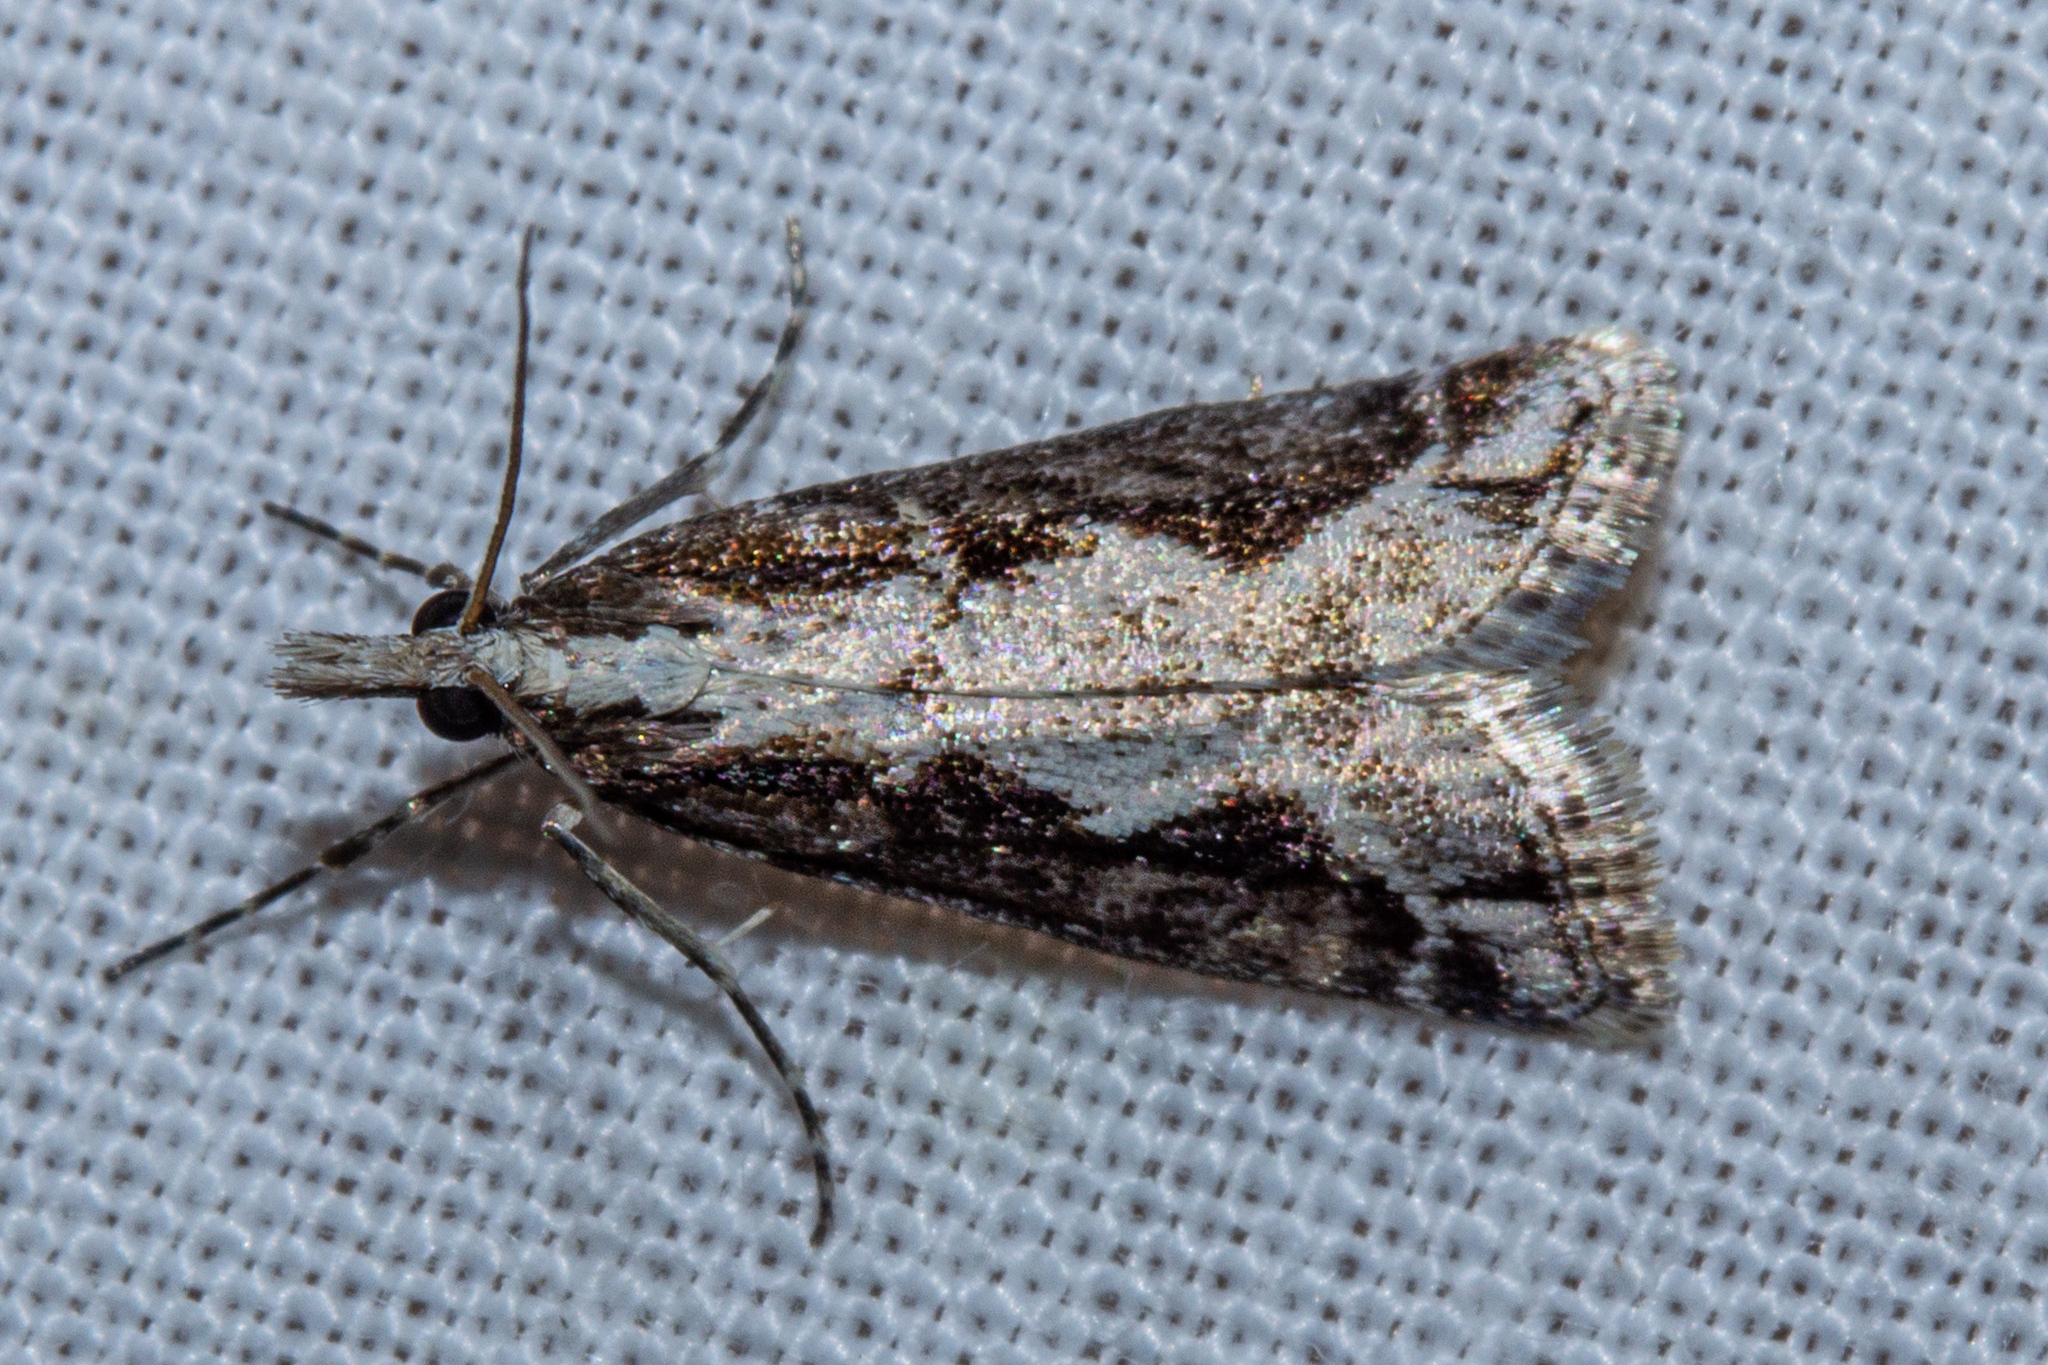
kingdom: Animalia
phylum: Arthropoda
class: Insecta
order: Lepidoptera
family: Crambidae
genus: Eudonia
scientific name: Eudonia steropaea
